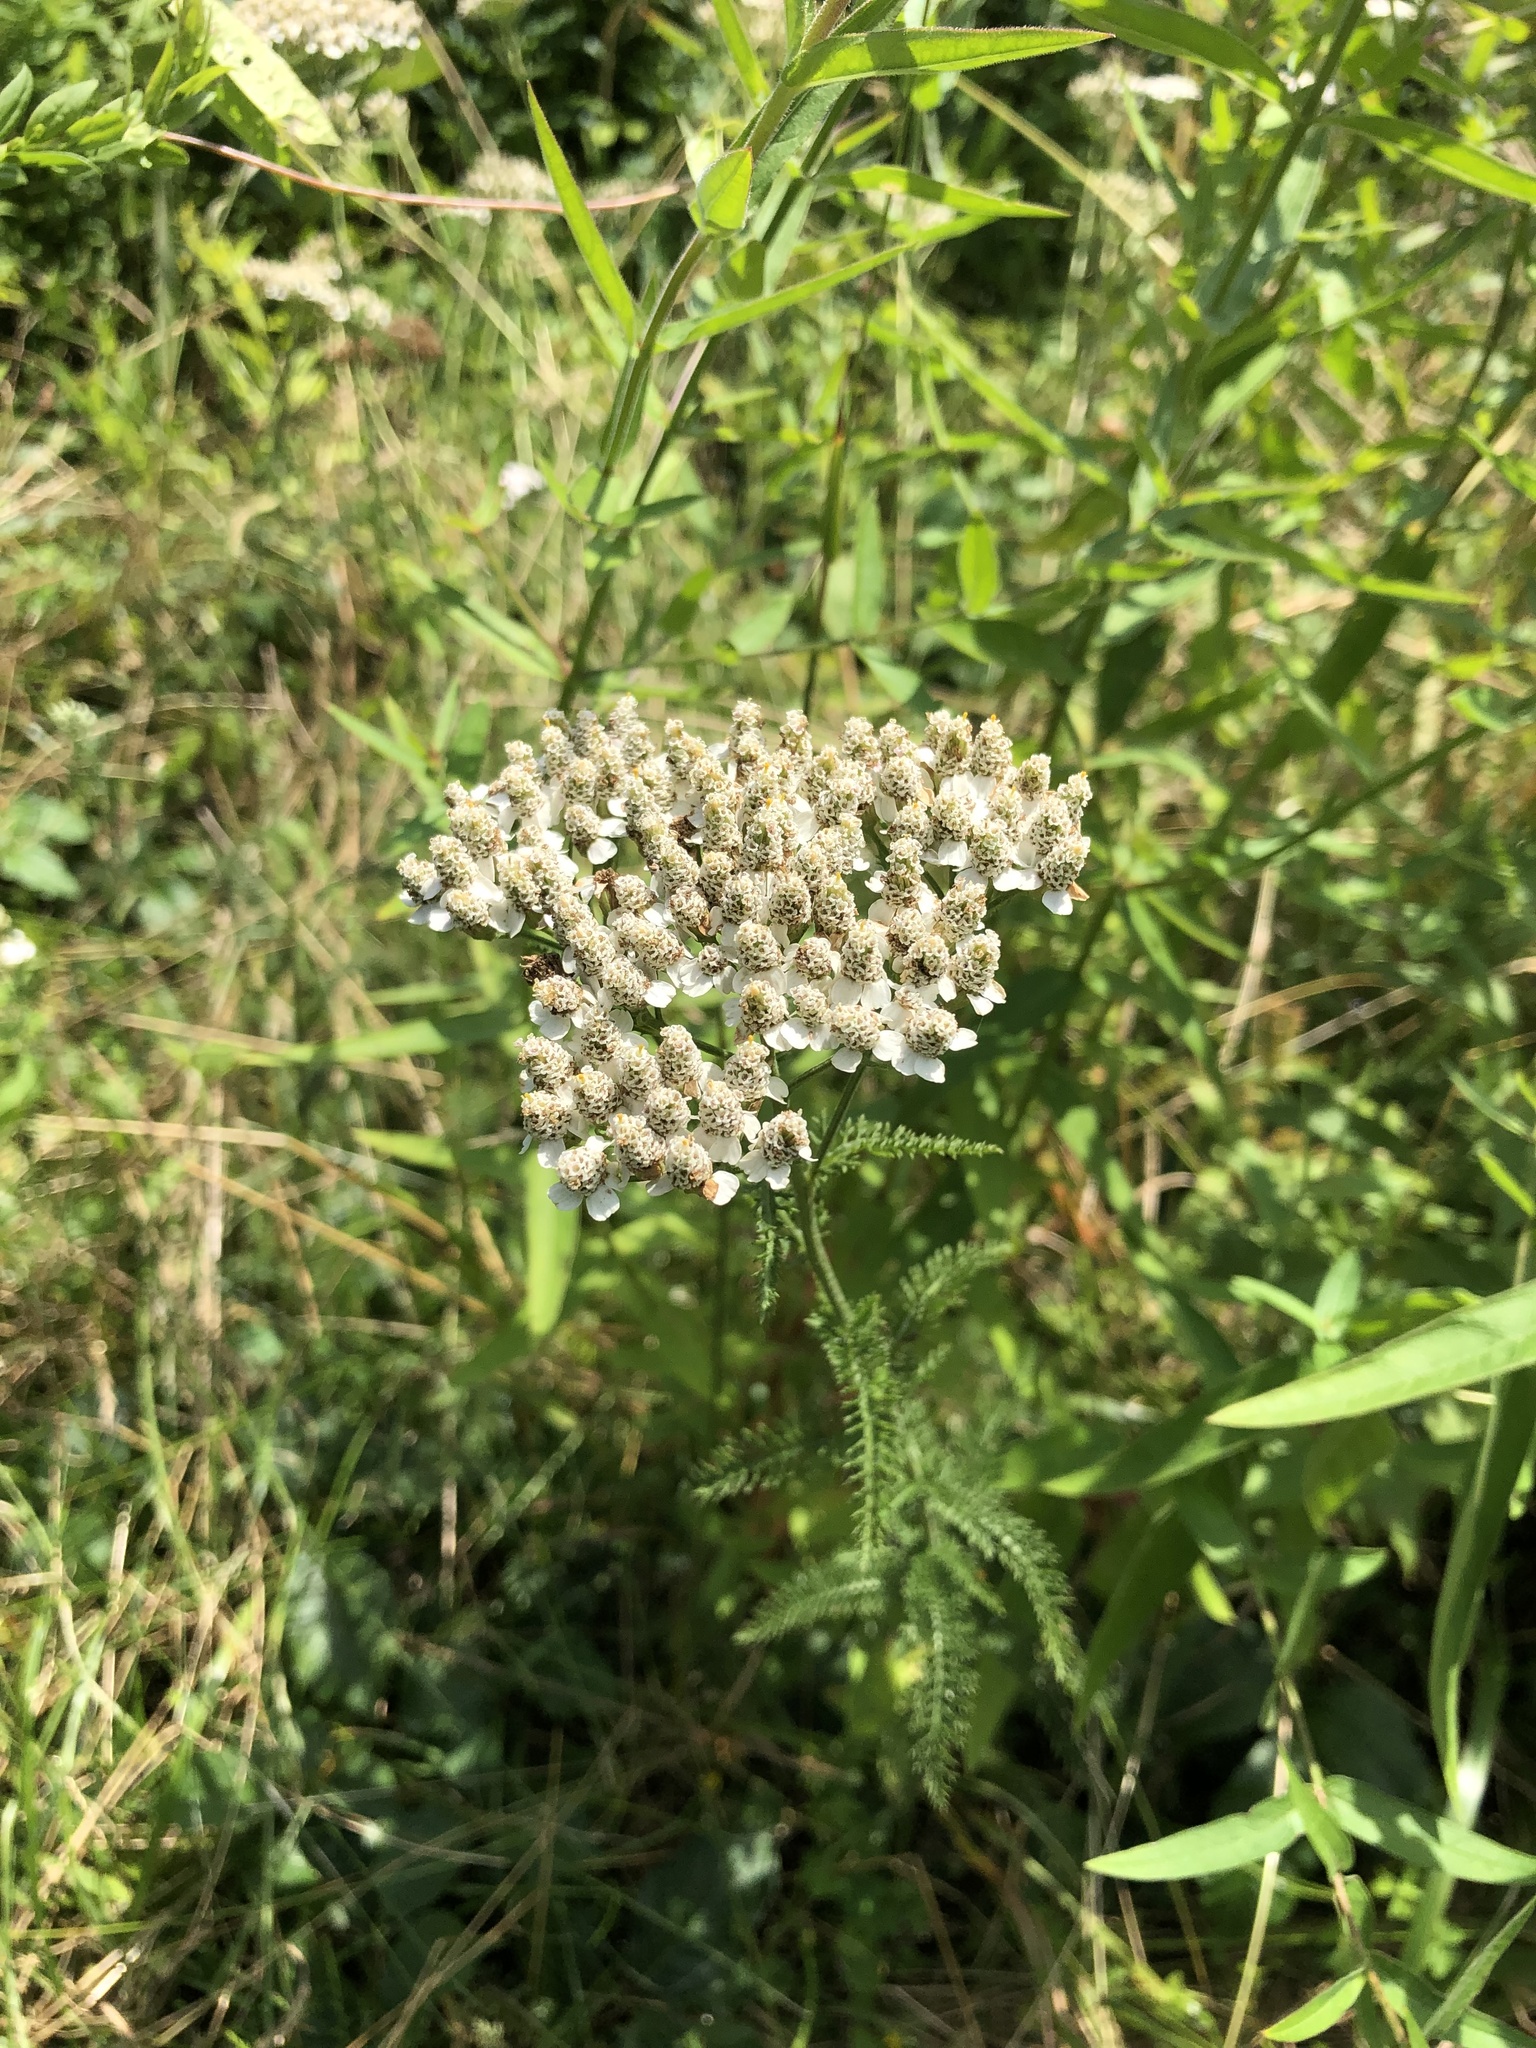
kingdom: Plantae
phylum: Tracheophyta
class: Magnoliopsida
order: Asterales
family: Asteraceae
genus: Achillea
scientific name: Achillea millefolium
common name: Yarrow
